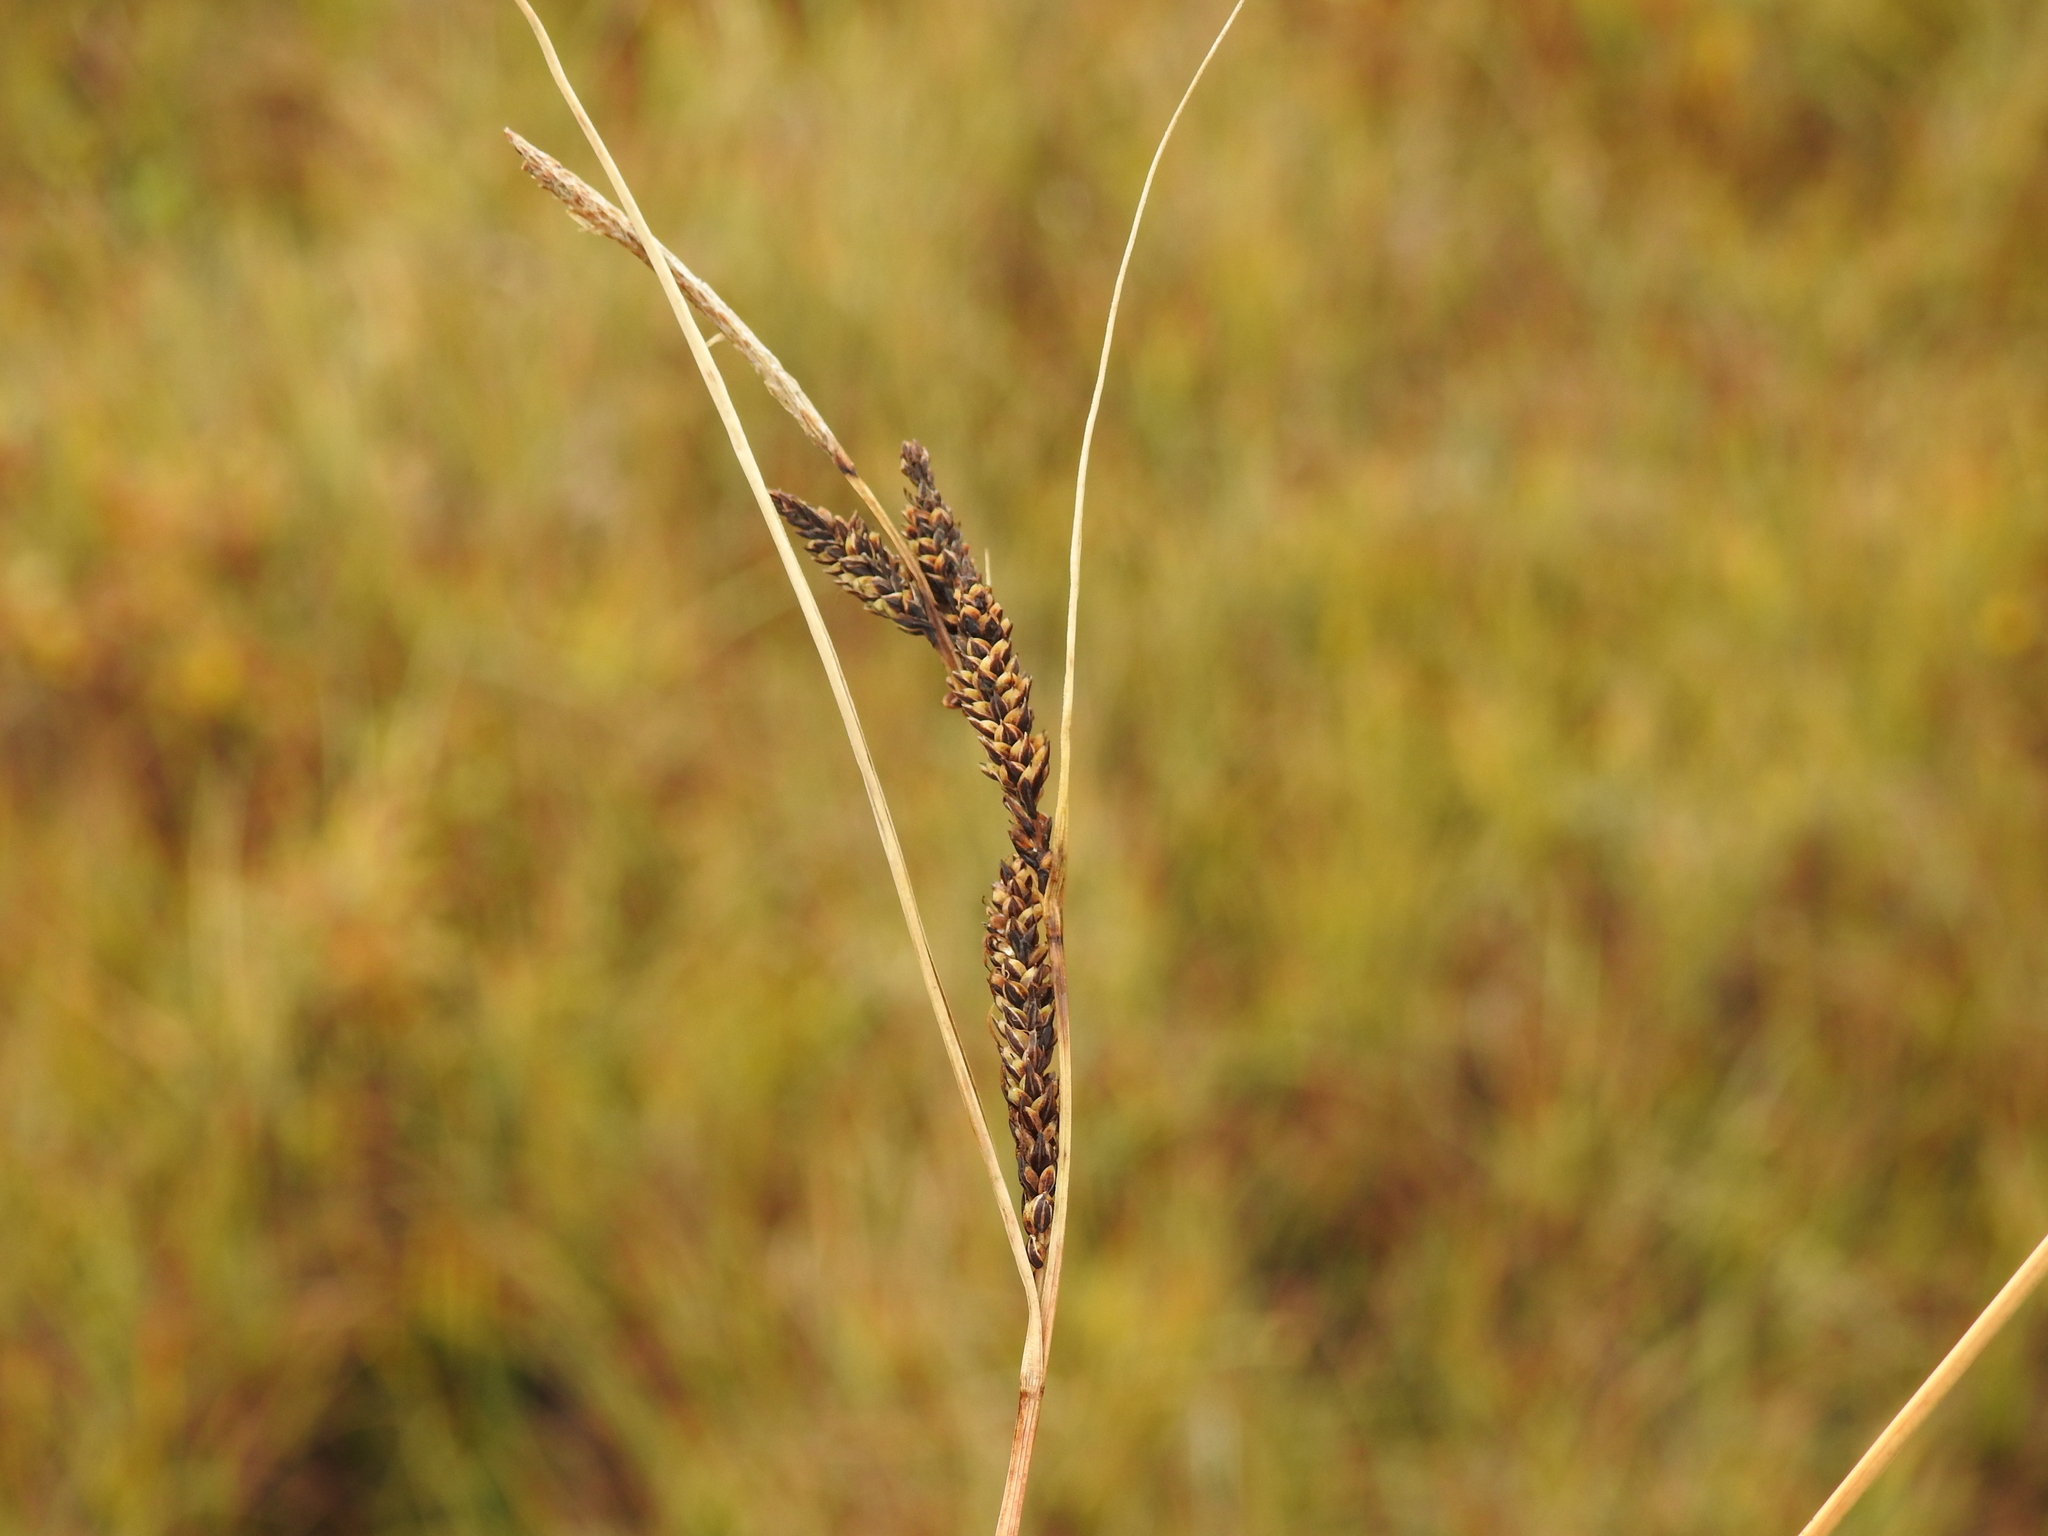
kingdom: Plantae
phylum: Tracheophyta
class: Liliopsida
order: Poales
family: Cyperaceae
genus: Carex
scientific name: Carex nigra
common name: Common sedge
